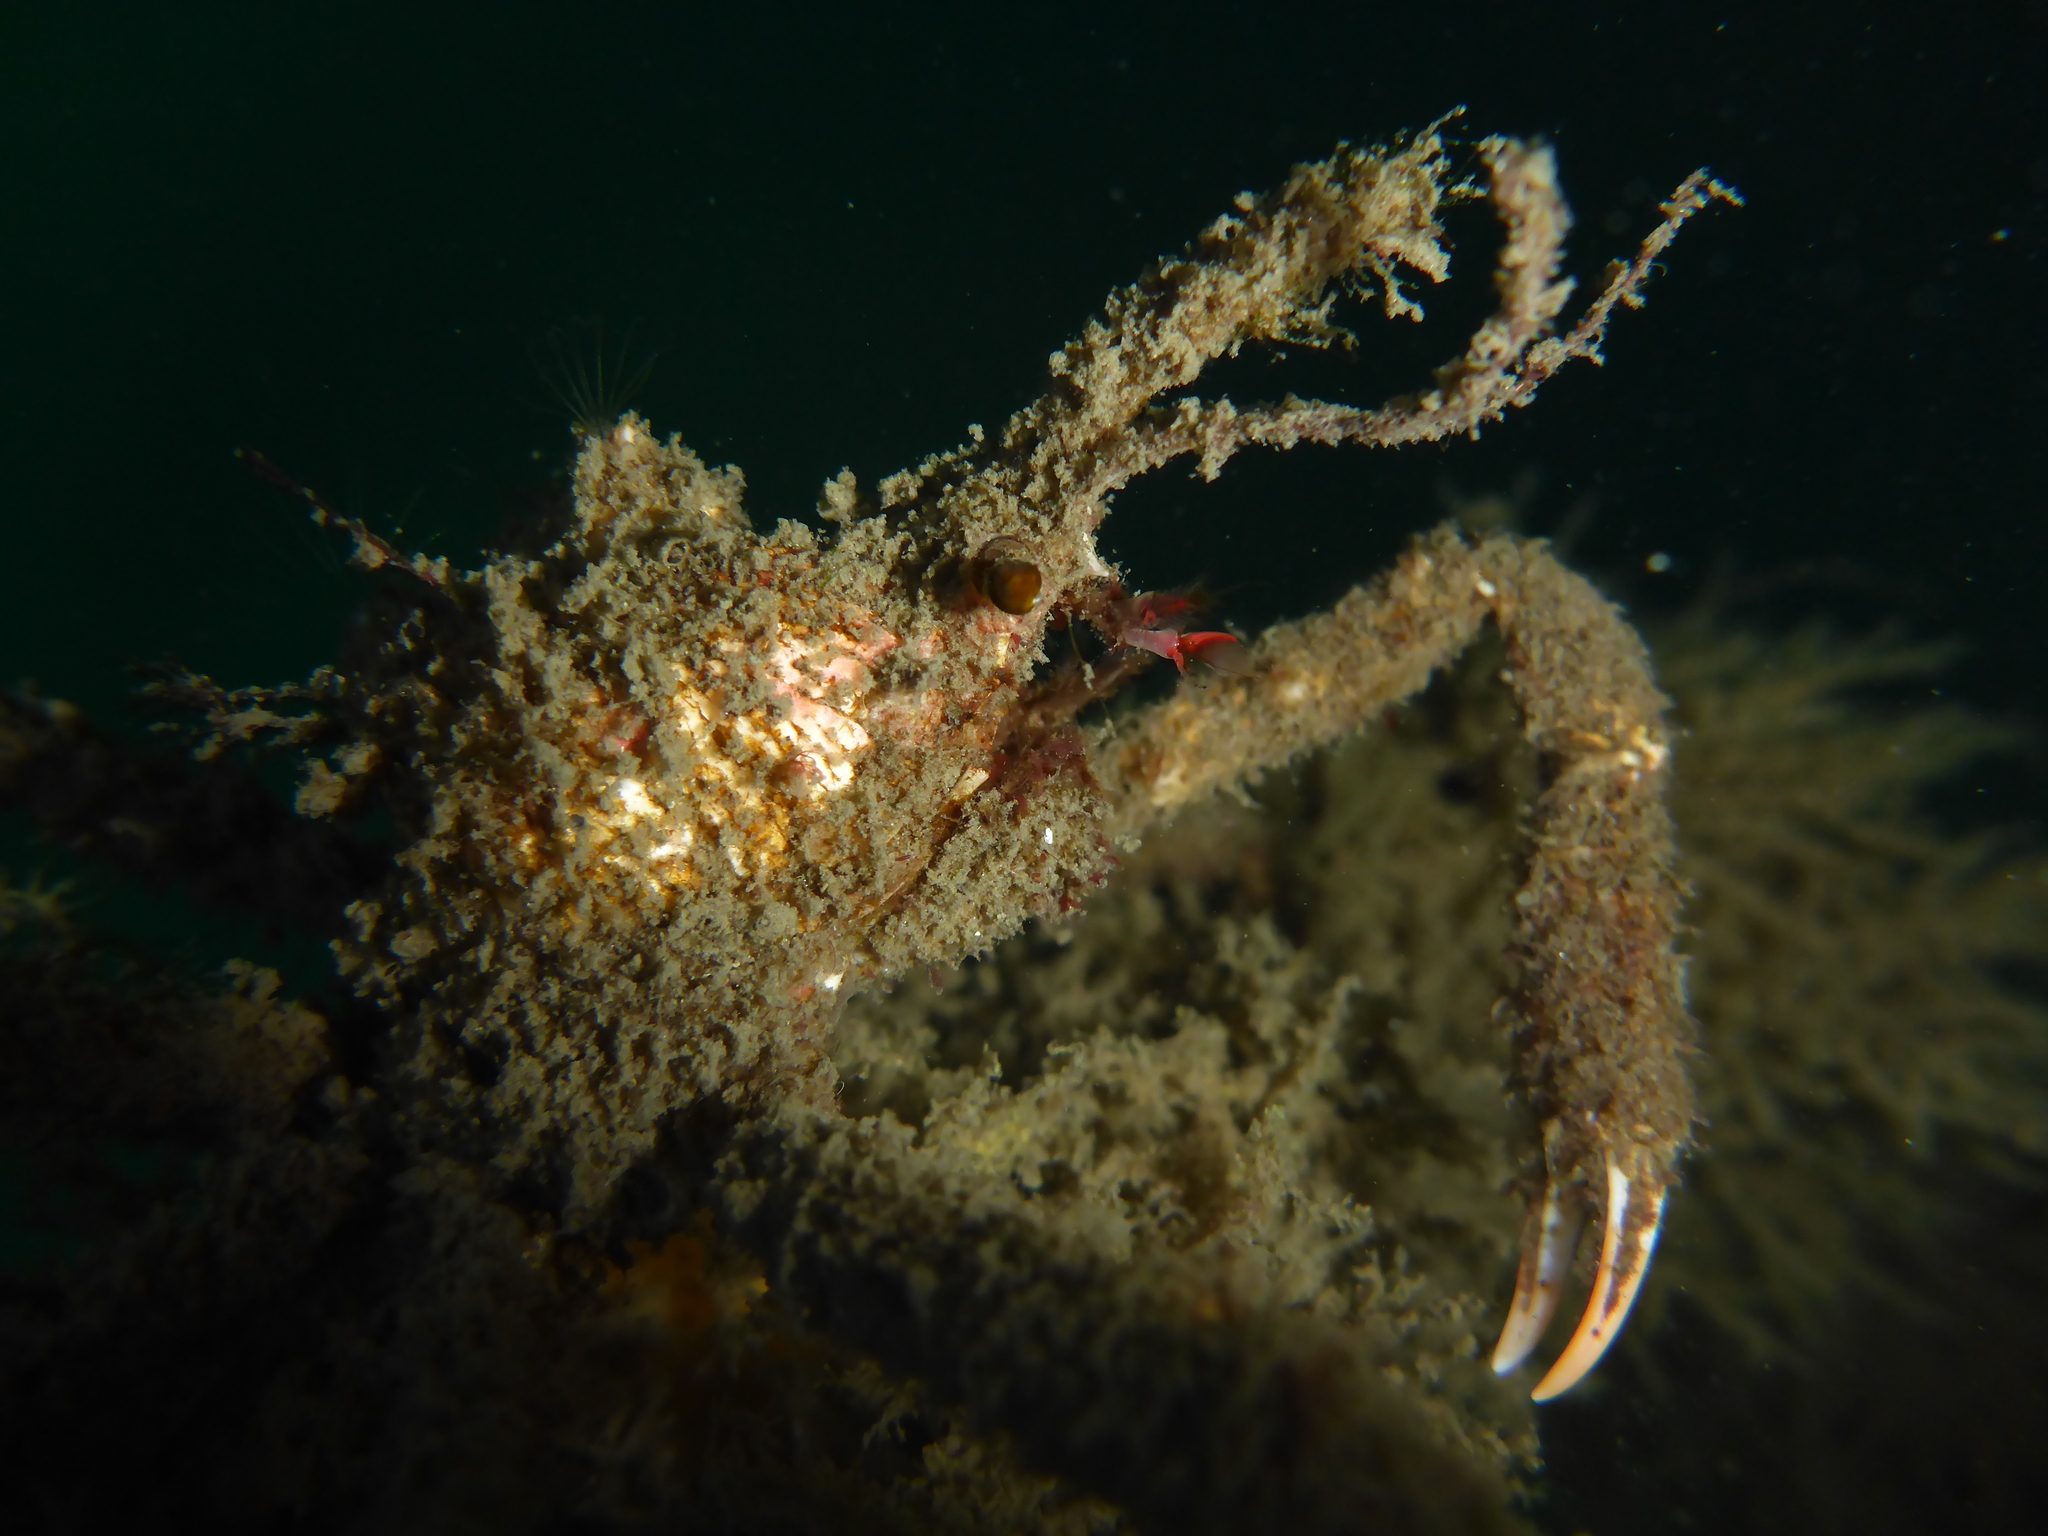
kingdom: Animalia
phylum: Arthropoda
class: Malacostraca
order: Decapoda
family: Oregoniidae
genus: Oregonia
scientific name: Oregonia gracilis
